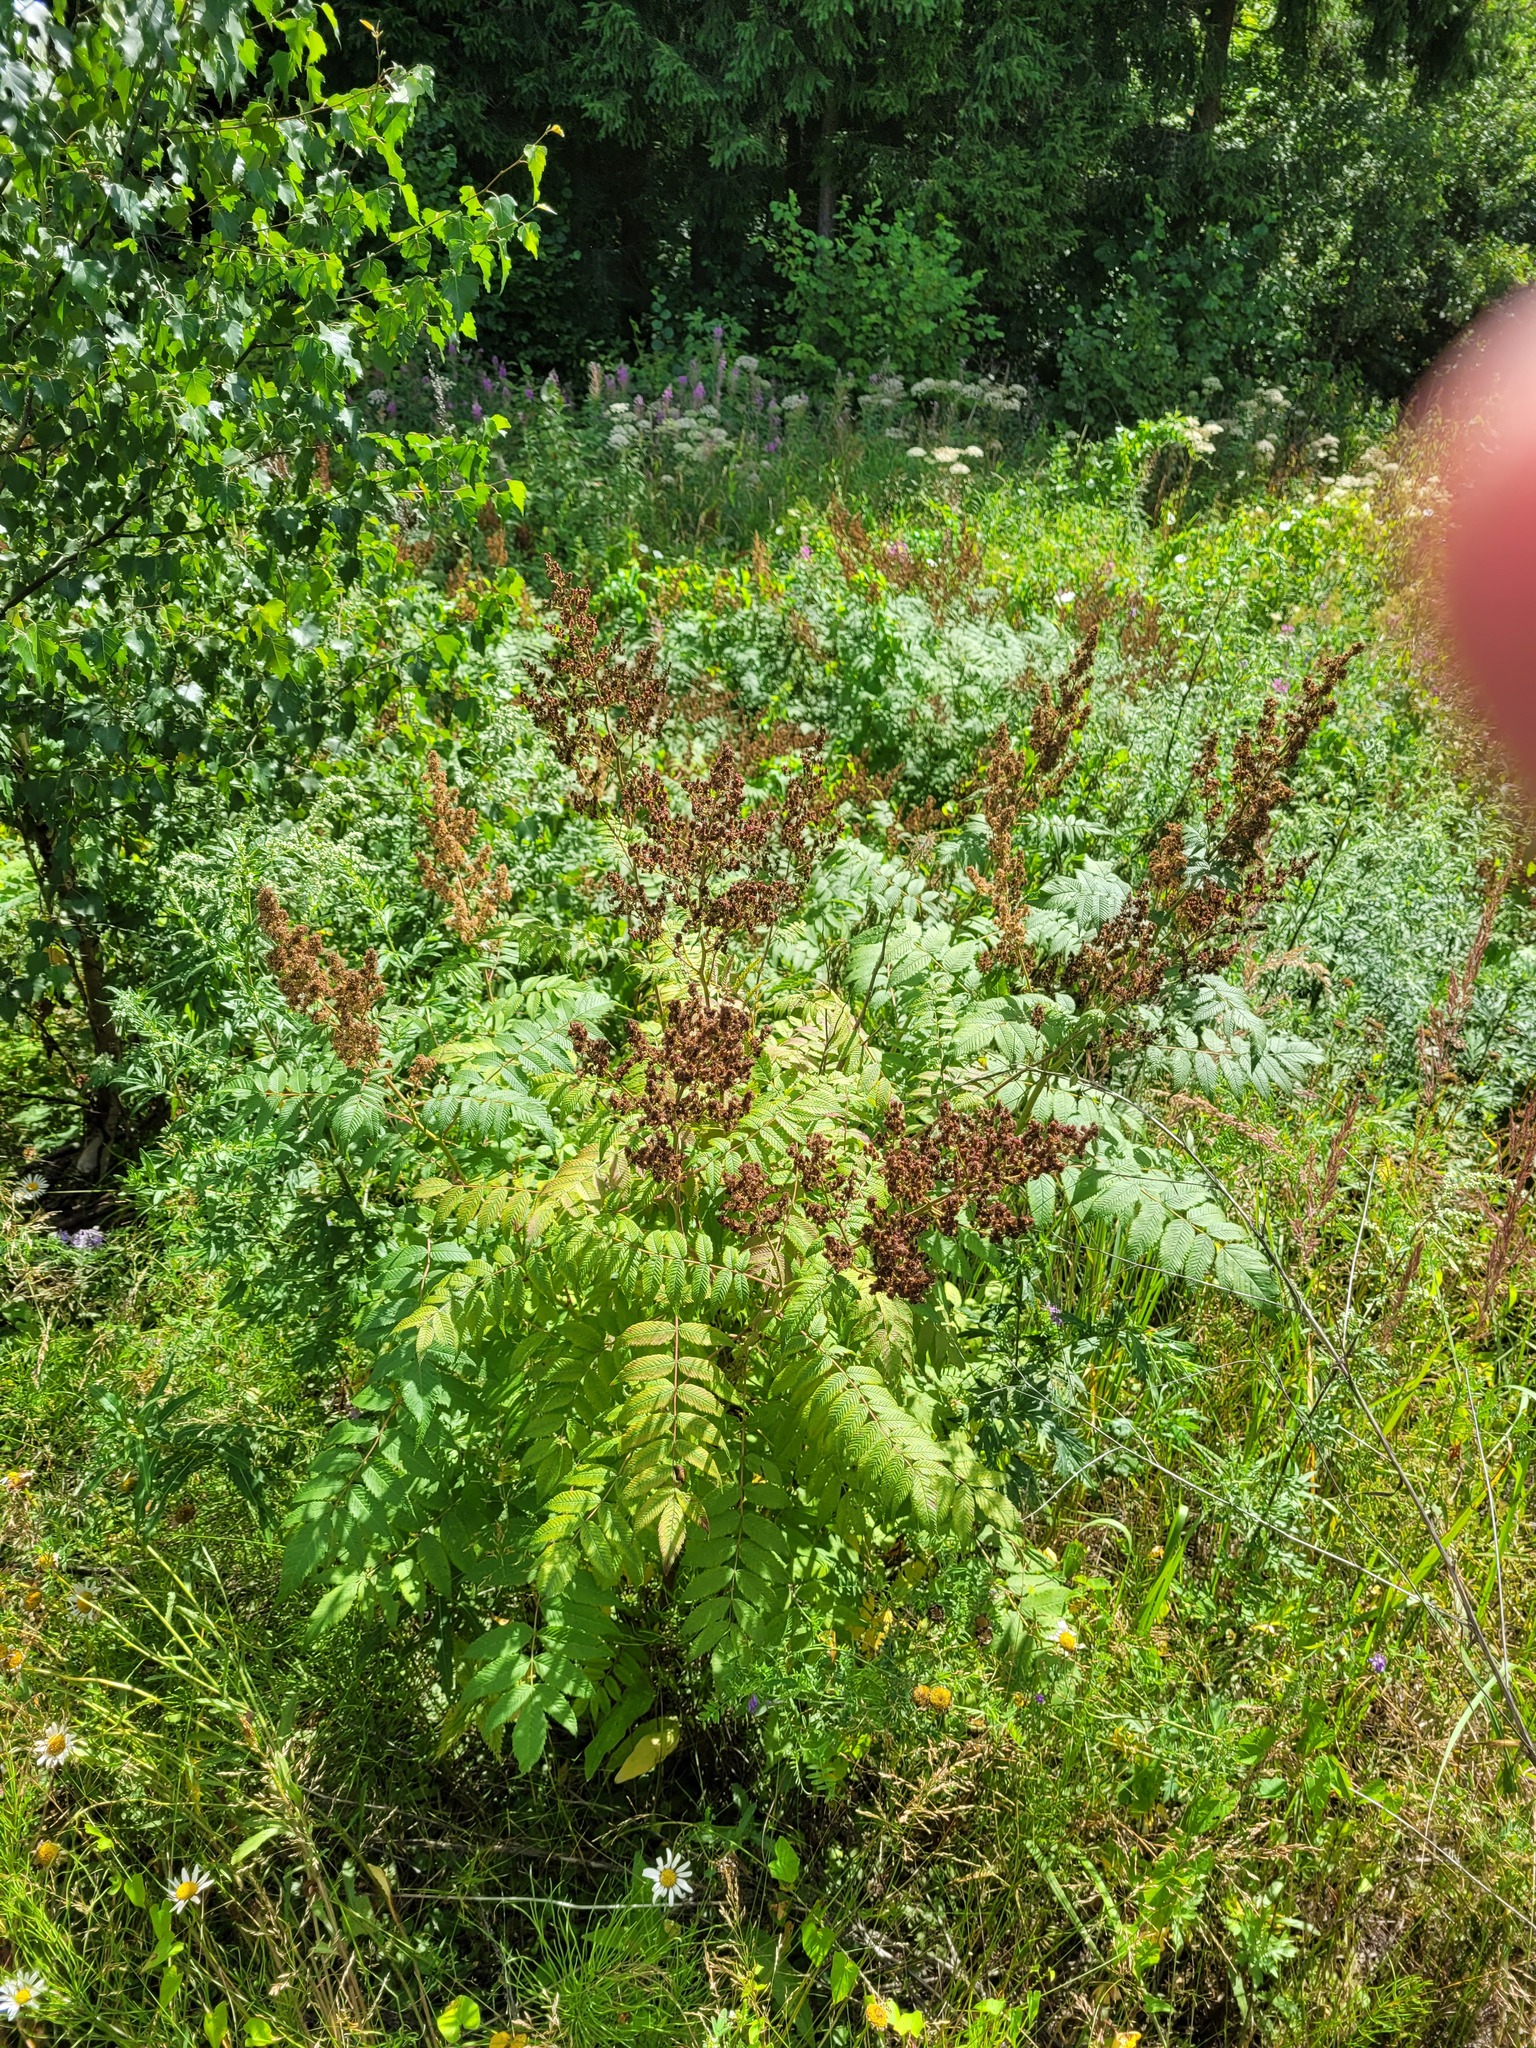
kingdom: Plantae
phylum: Tracheophyta
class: Magnoliopsida
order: Rosales
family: Rosaceae
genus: Sorbaria
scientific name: Sorbaria sorbifolia
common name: False spiraea
